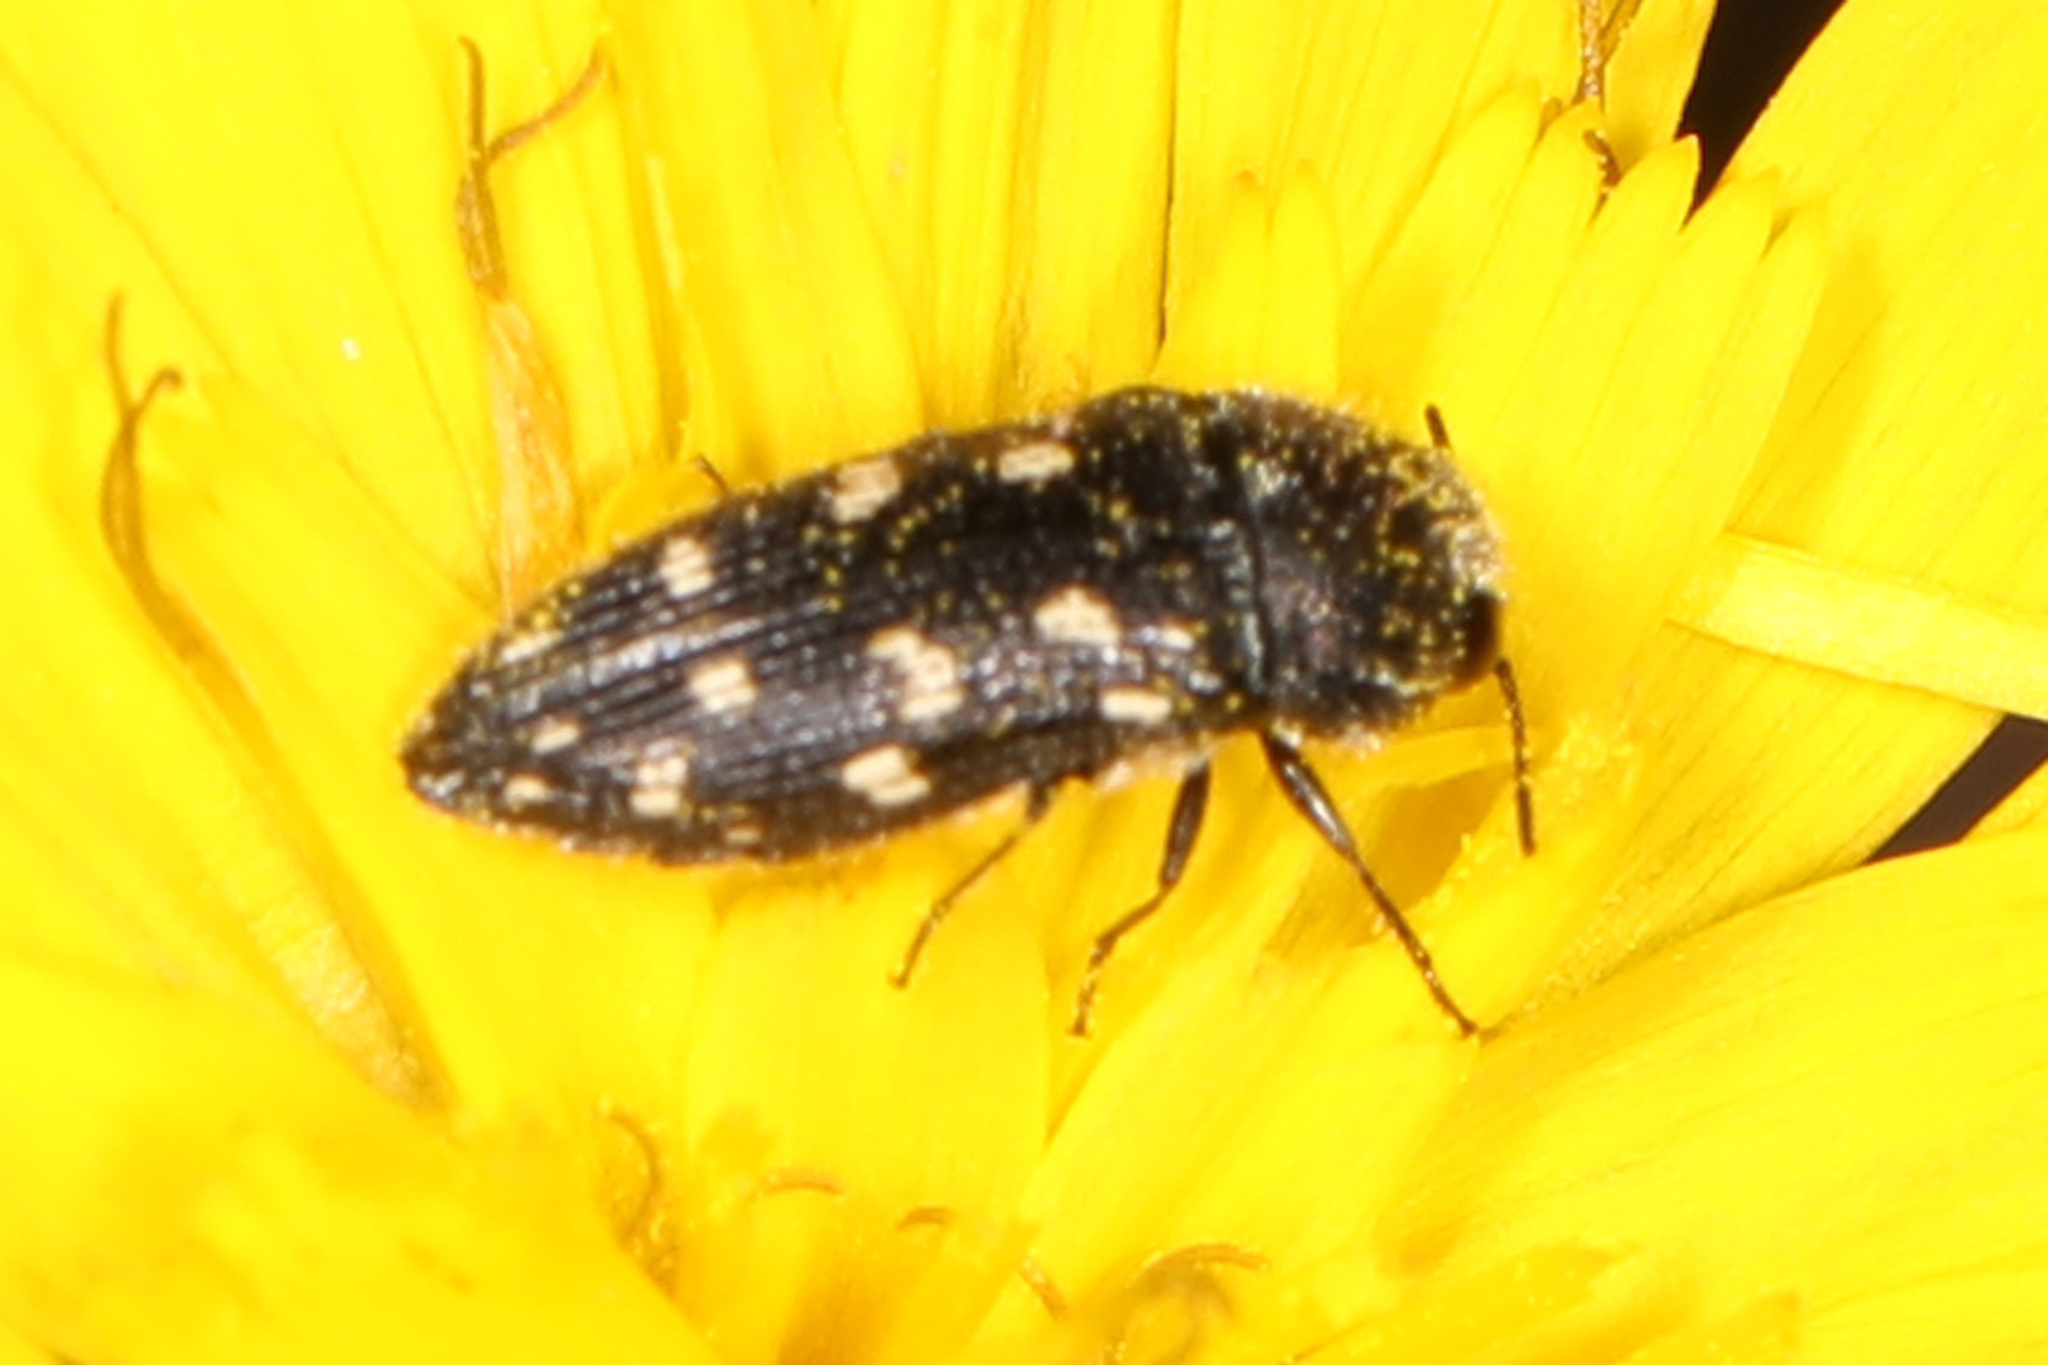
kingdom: Animalia
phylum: Arthropoda
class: Insecta
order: Coleoptera
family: Buprestidae
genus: Acmaeodera
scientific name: Acmaeodera tubulus
